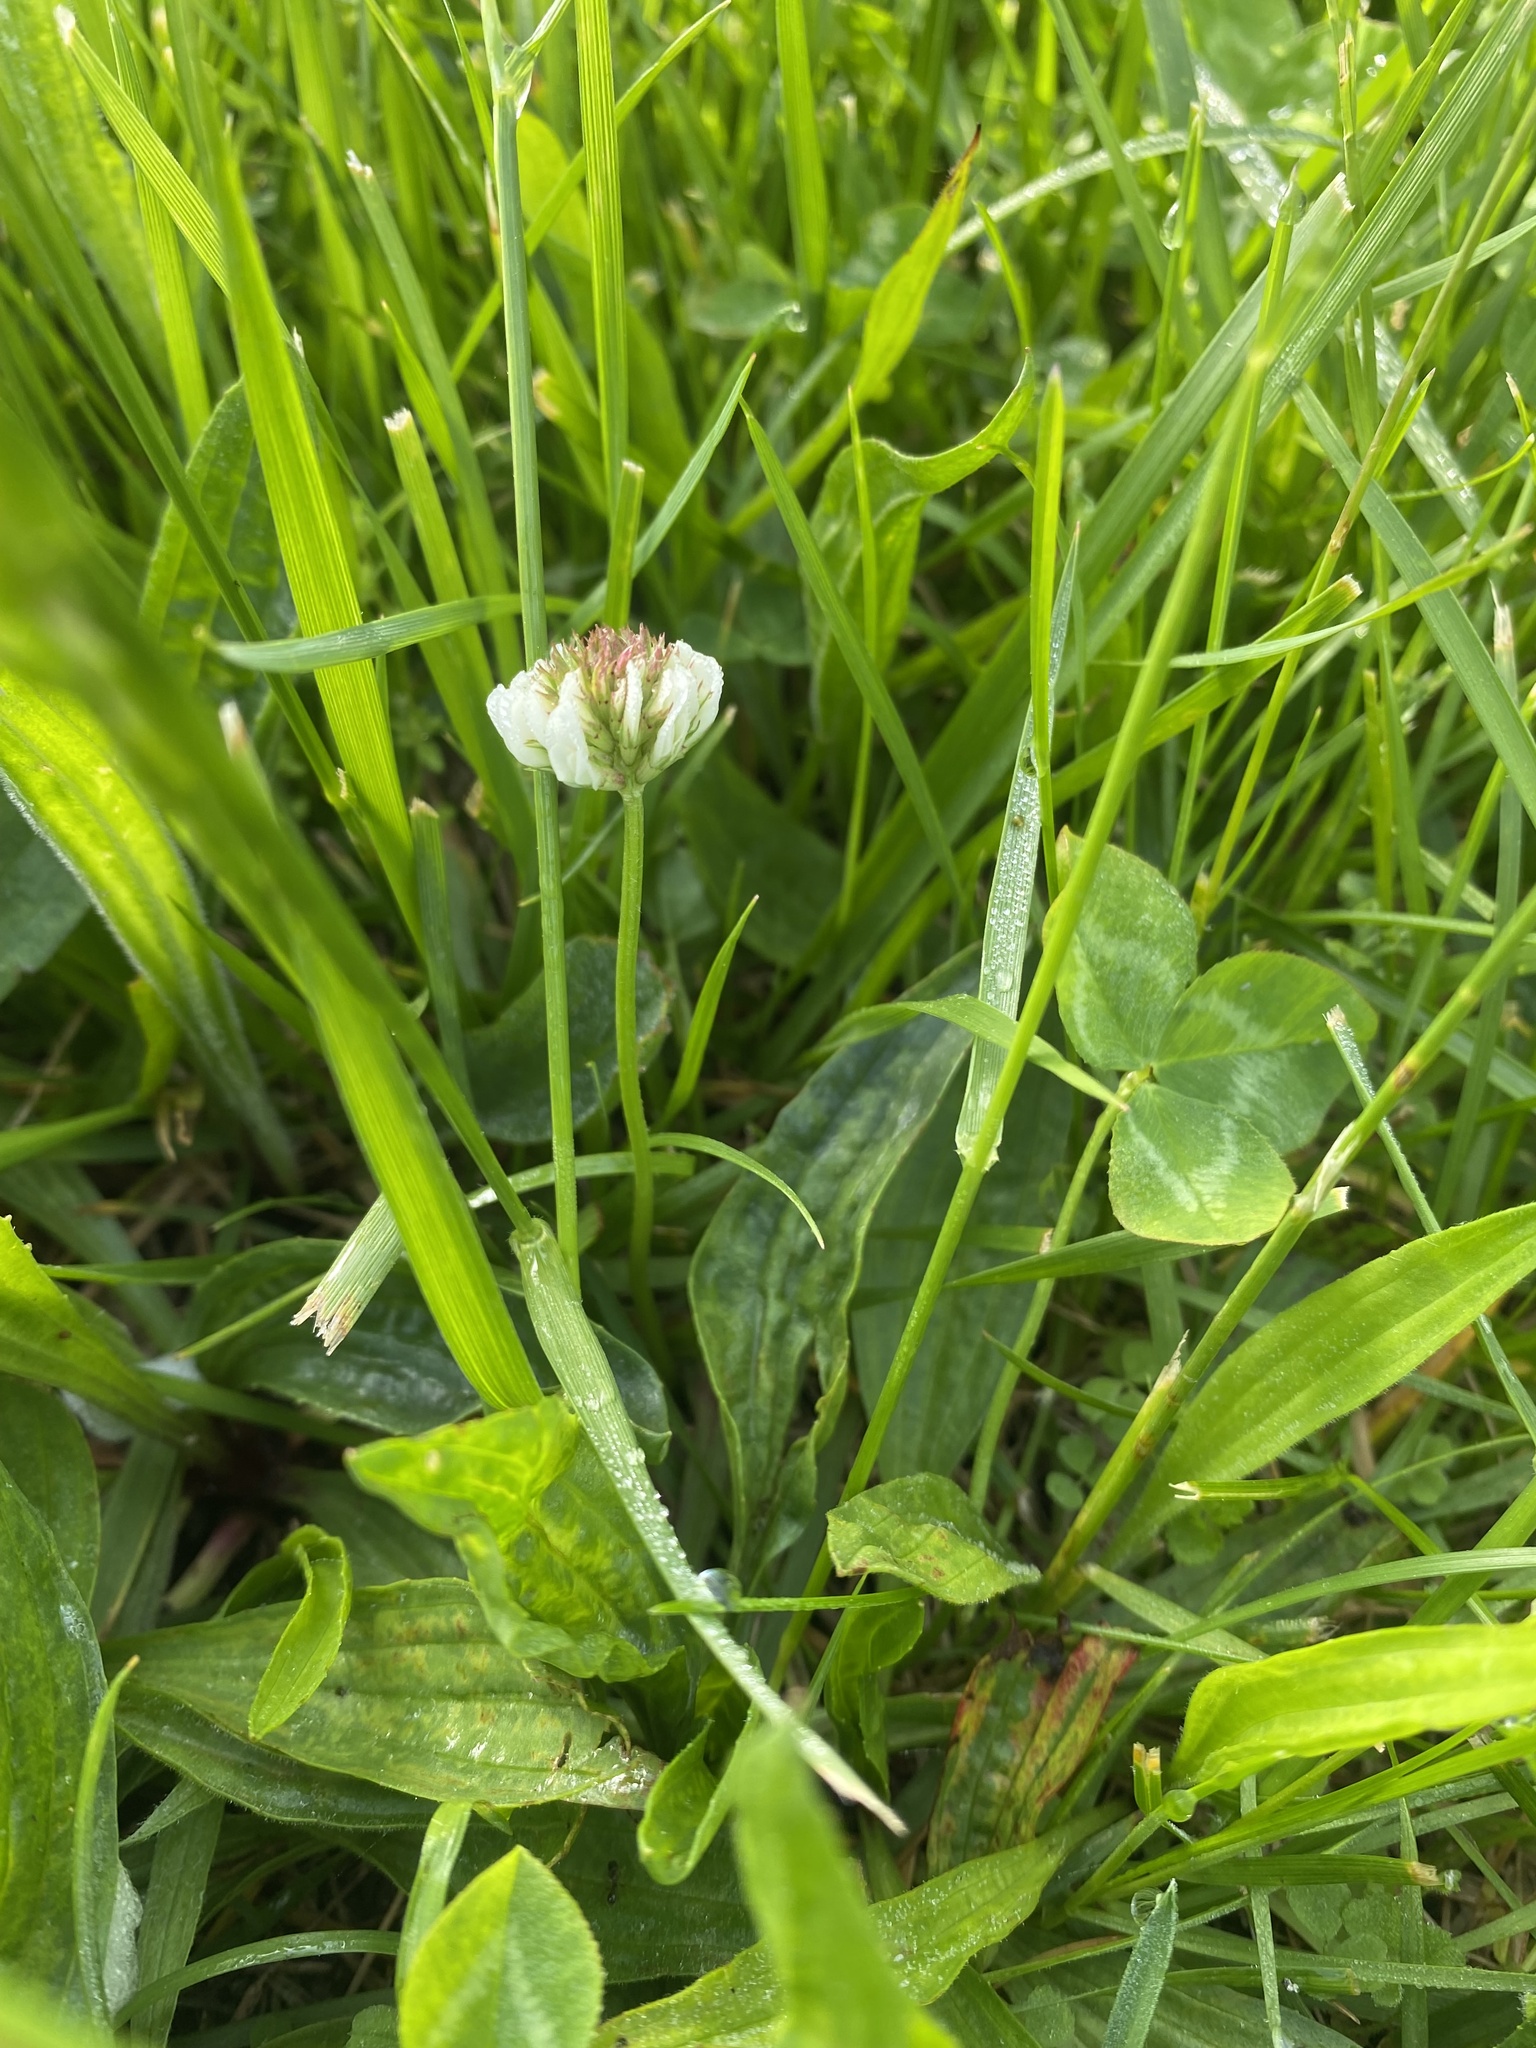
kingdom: Plantae
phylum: Tracheophyta
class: Magnoliopsida
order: Fabales
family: Fabaceae
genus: Trifolium
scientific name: Trifolium repens
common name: White clover
